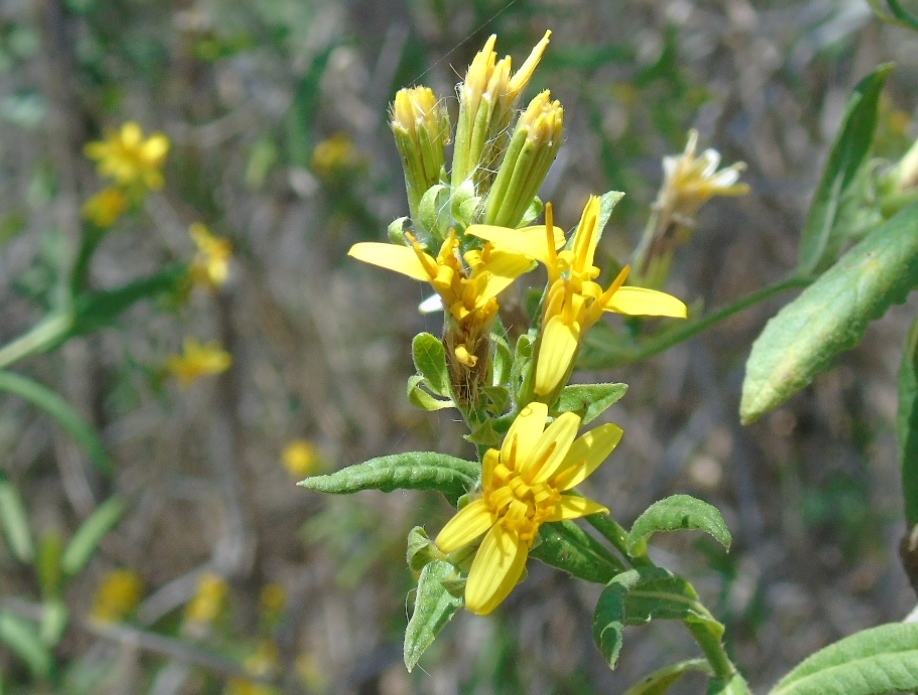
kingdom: Plantae
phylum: Tracheophyta
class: Magnoliopsida
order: Asterales
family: Asteraceae
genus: Trixis
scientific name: Trixis pterocaulis
